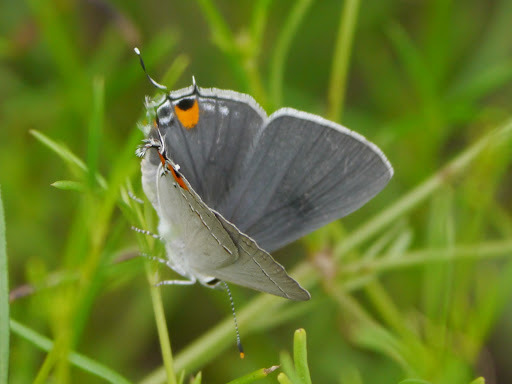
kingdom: Animalia
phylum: Arthropoda
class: Insecta
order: Lepidoptera
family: Lycaenidae
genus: Strymon
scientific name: Strymon melinus
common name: Gray hairstreak
